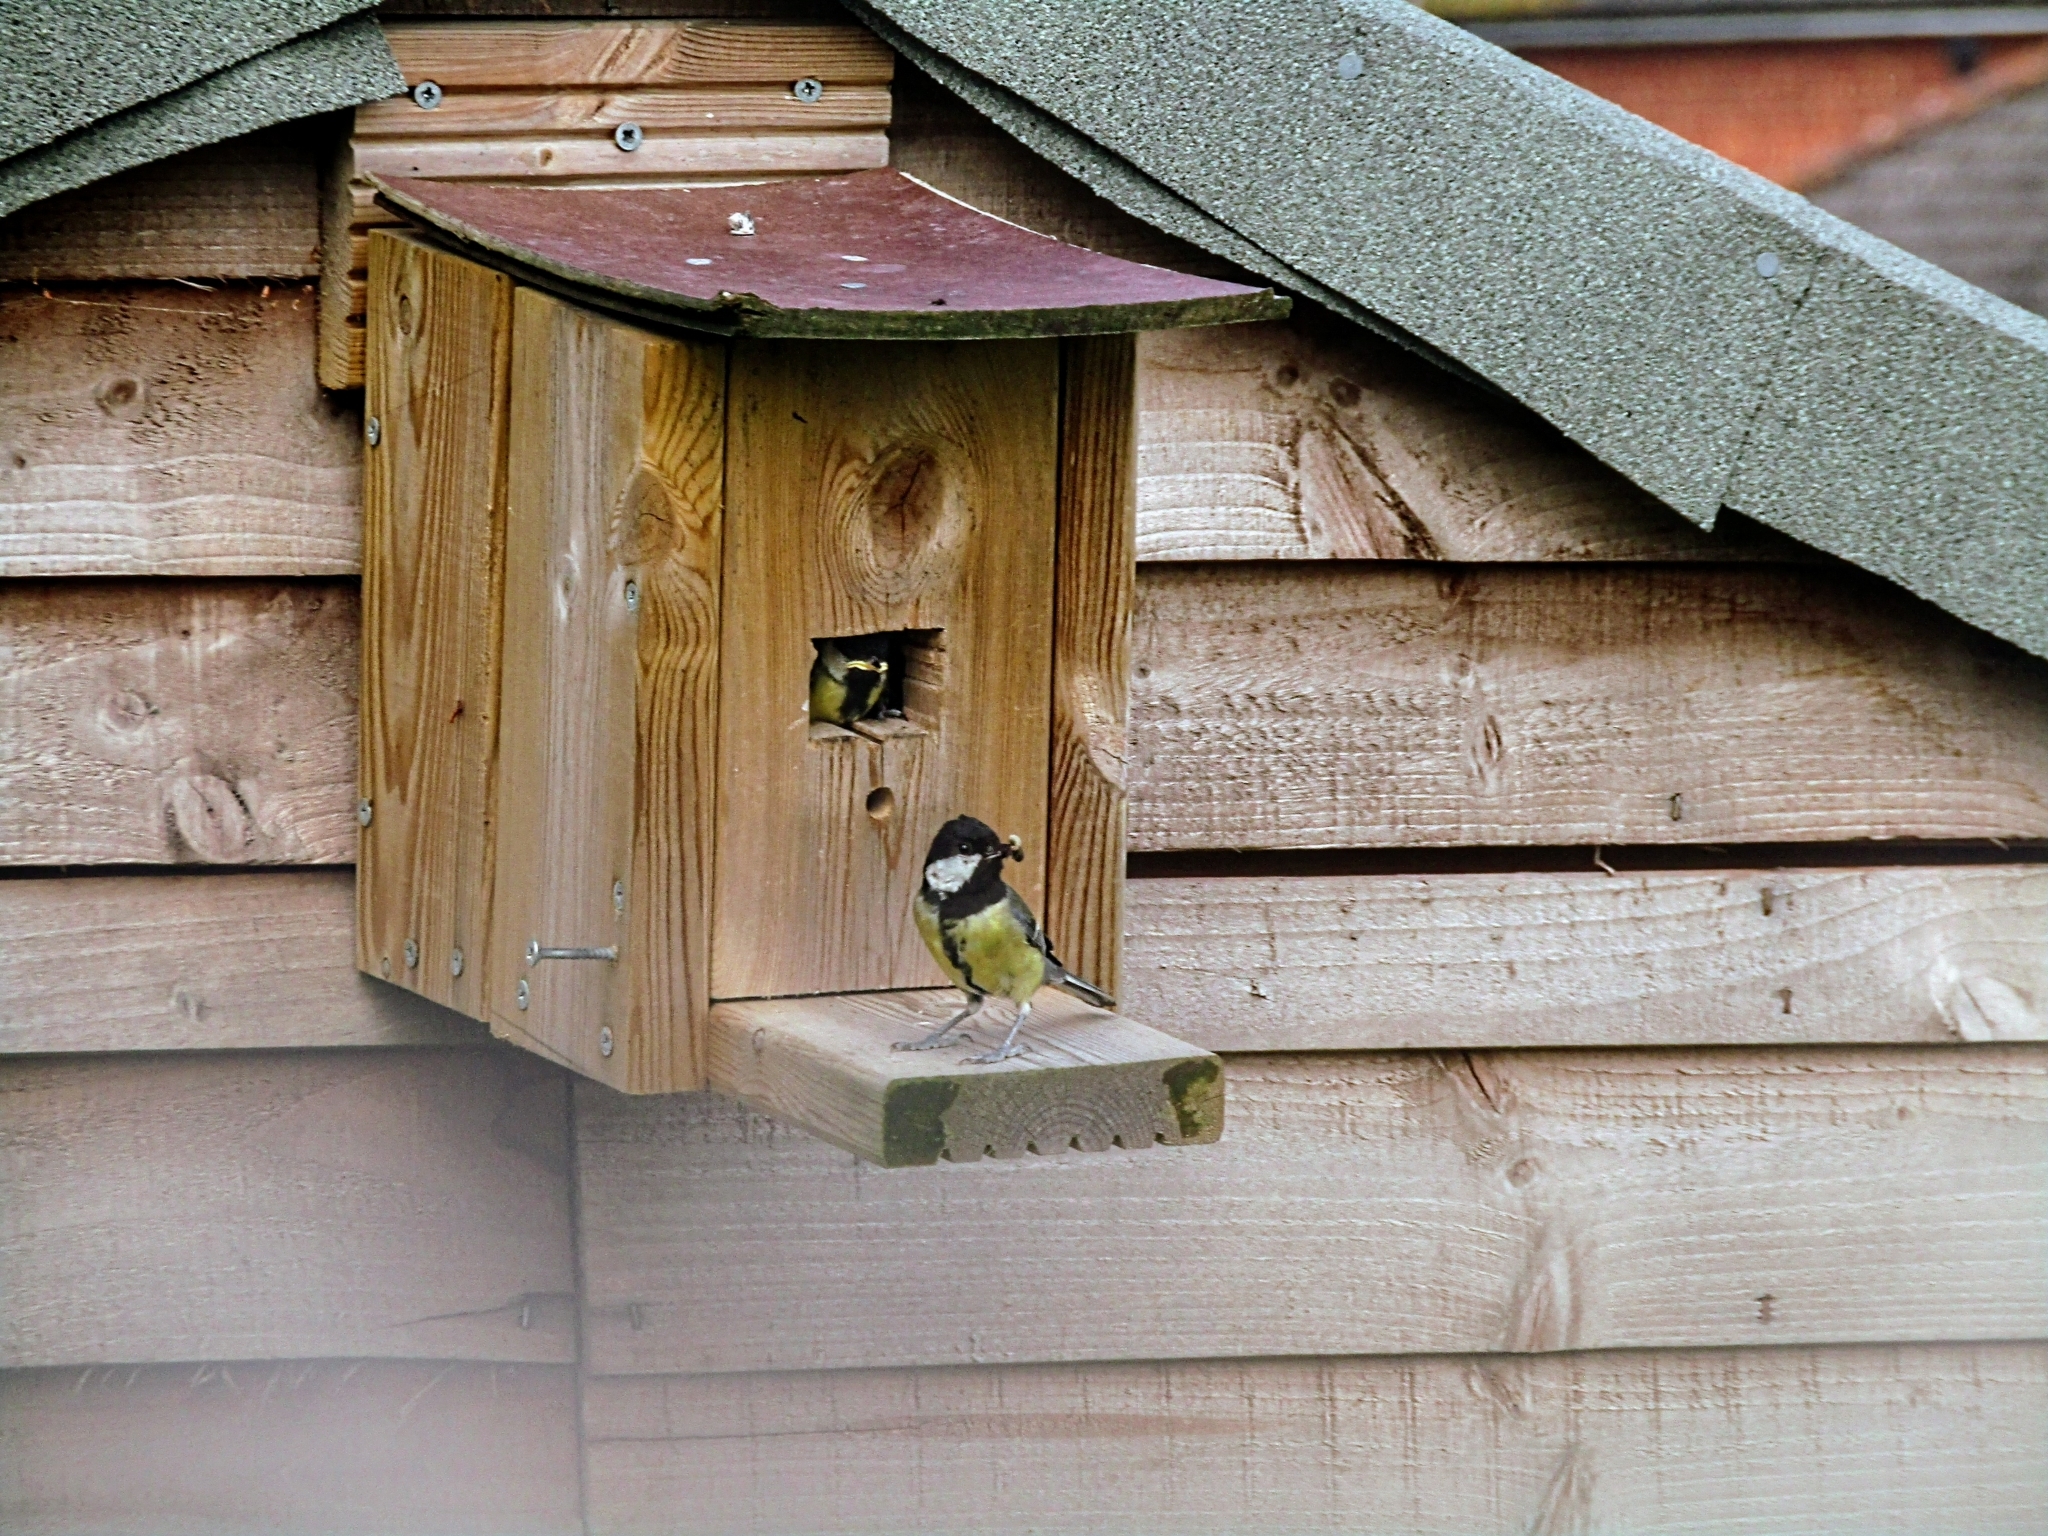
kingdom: Animalia
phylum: Chordata
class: Aves
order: Passeriformes
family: Paridae
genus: Parus
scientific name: Parus major
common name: Great tit
